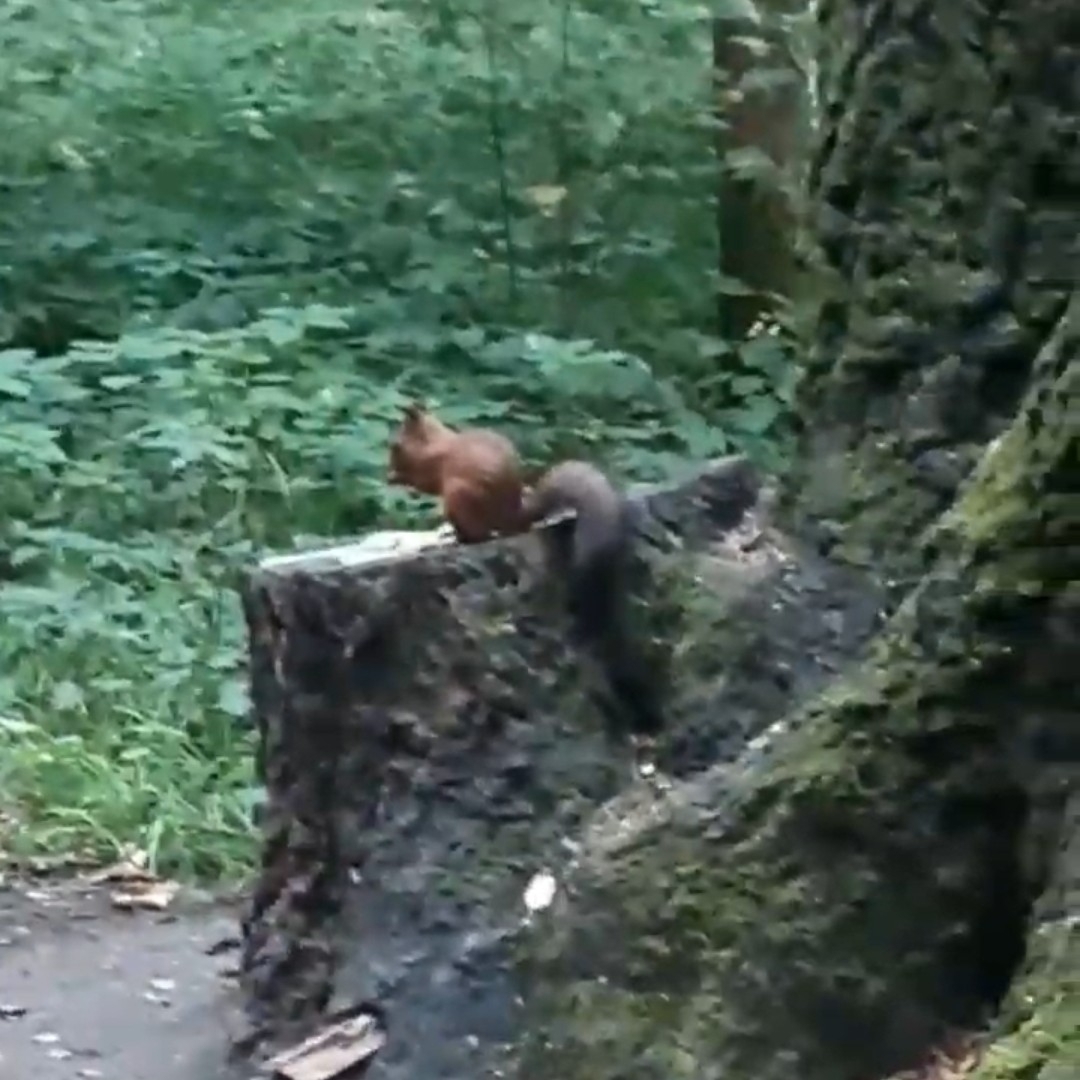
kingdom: Animalia
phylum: Chordata
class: Mammalia
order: Rodentia
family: Sciuridae
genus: Sciurus
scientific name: Sciurus vulgaris
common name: Eurasian red squirrel
